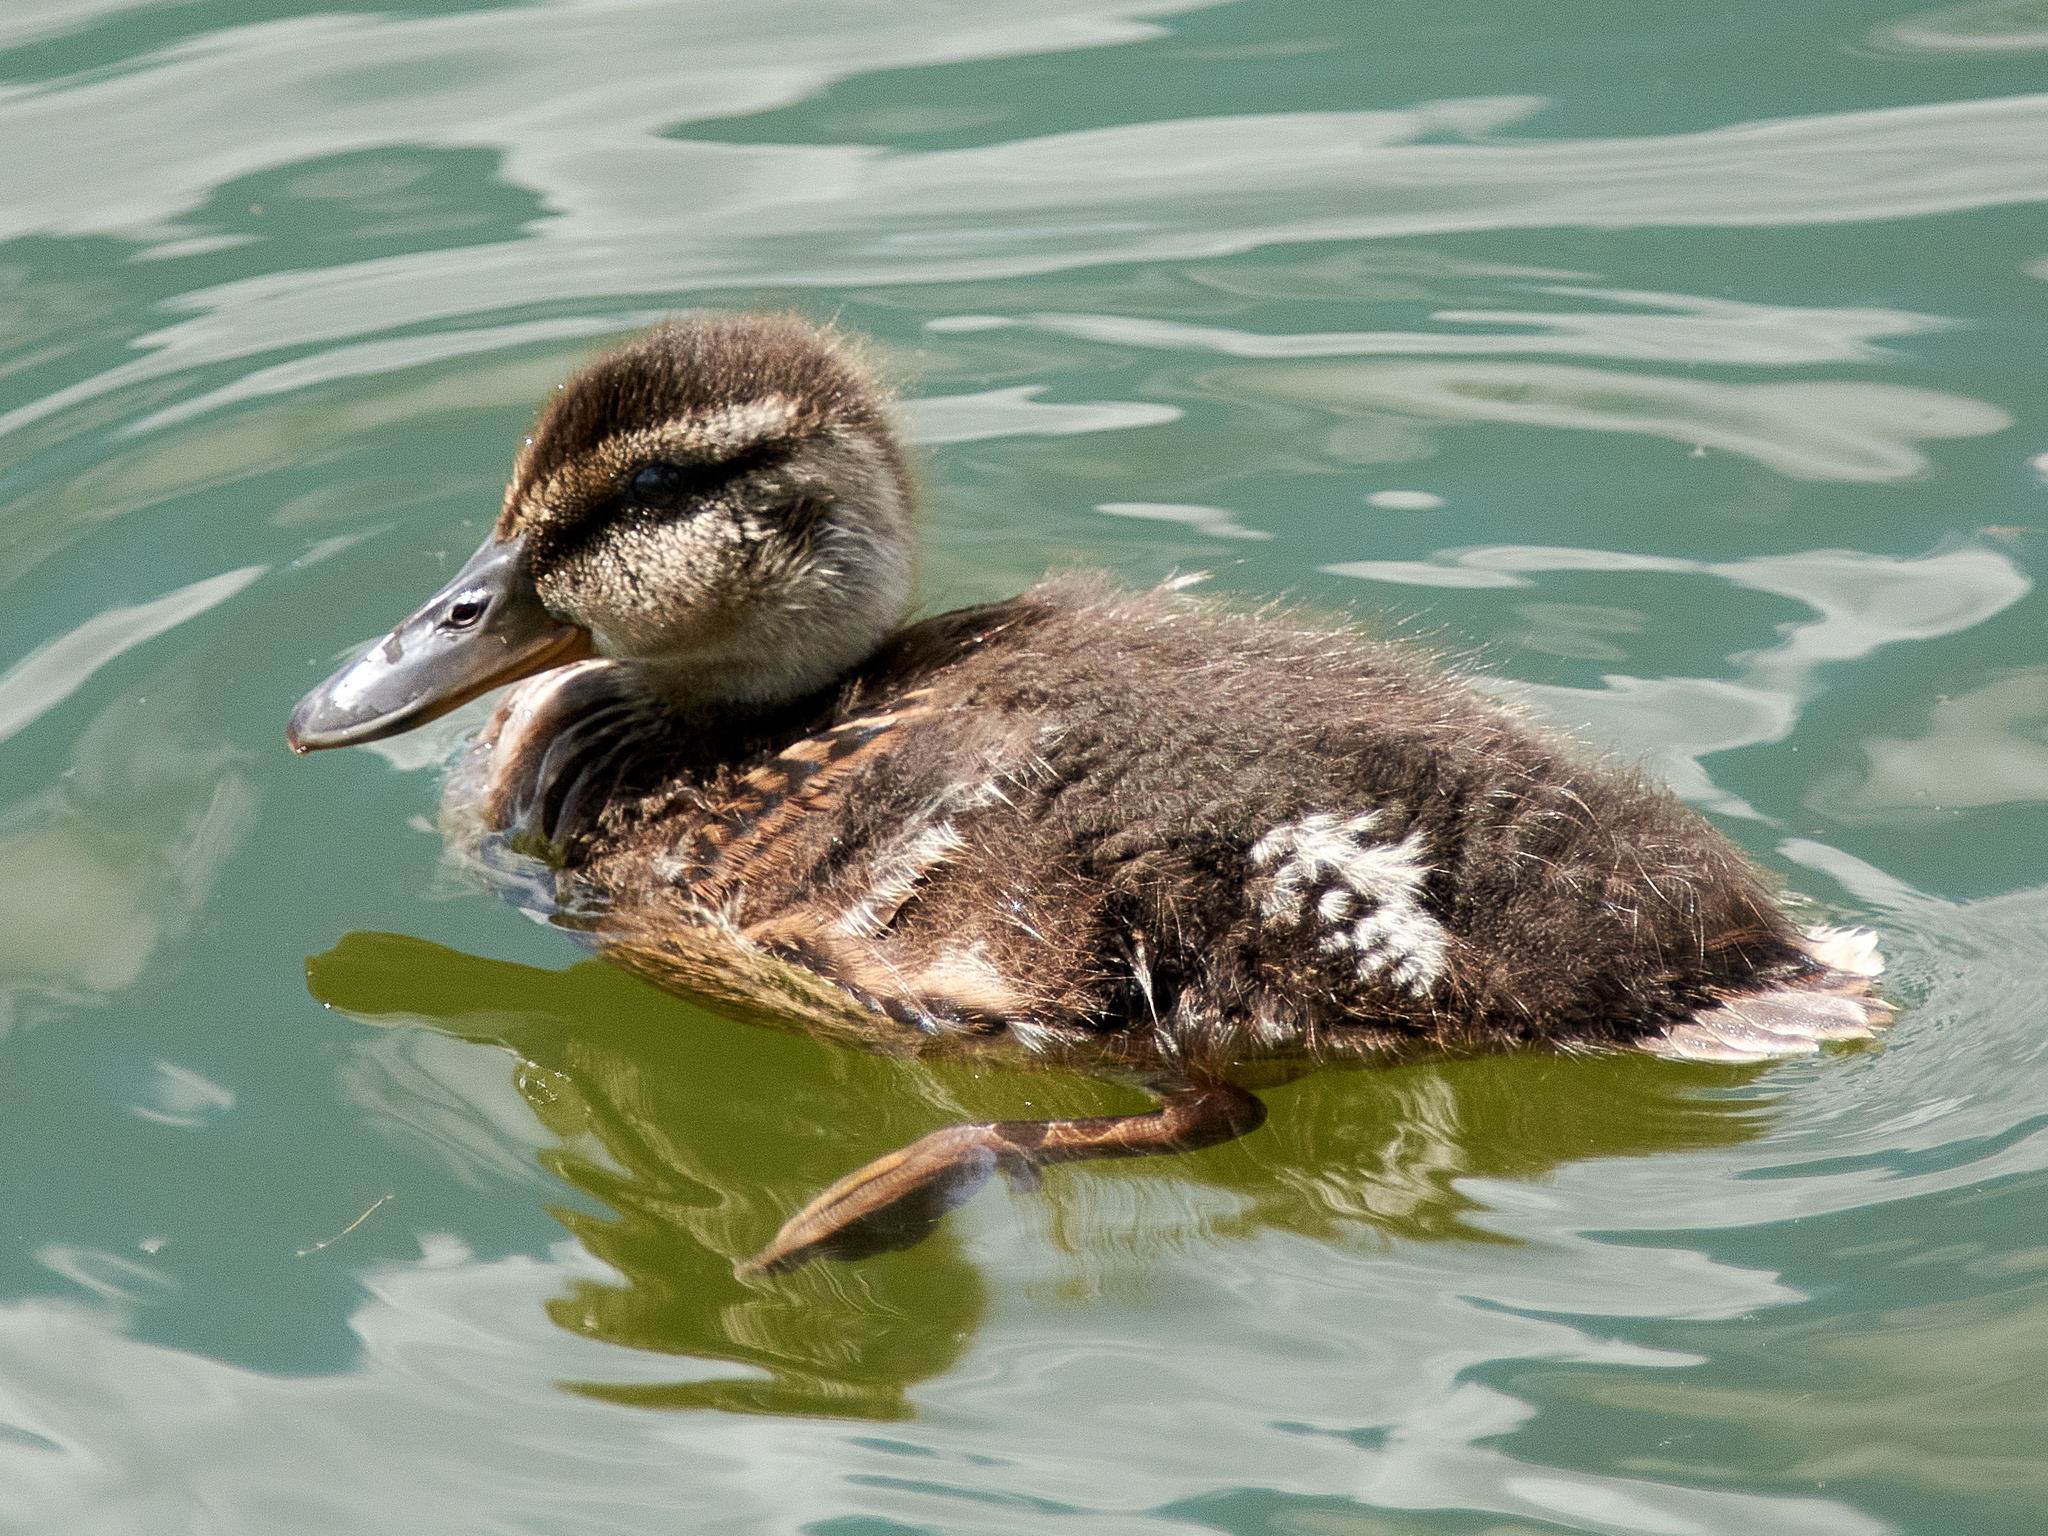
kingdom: Animalia
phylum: Chordata
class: Aves
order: Anseriformes
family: Anatidae
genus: Anas
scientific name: Anas platyrhynchos
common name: Mallard
